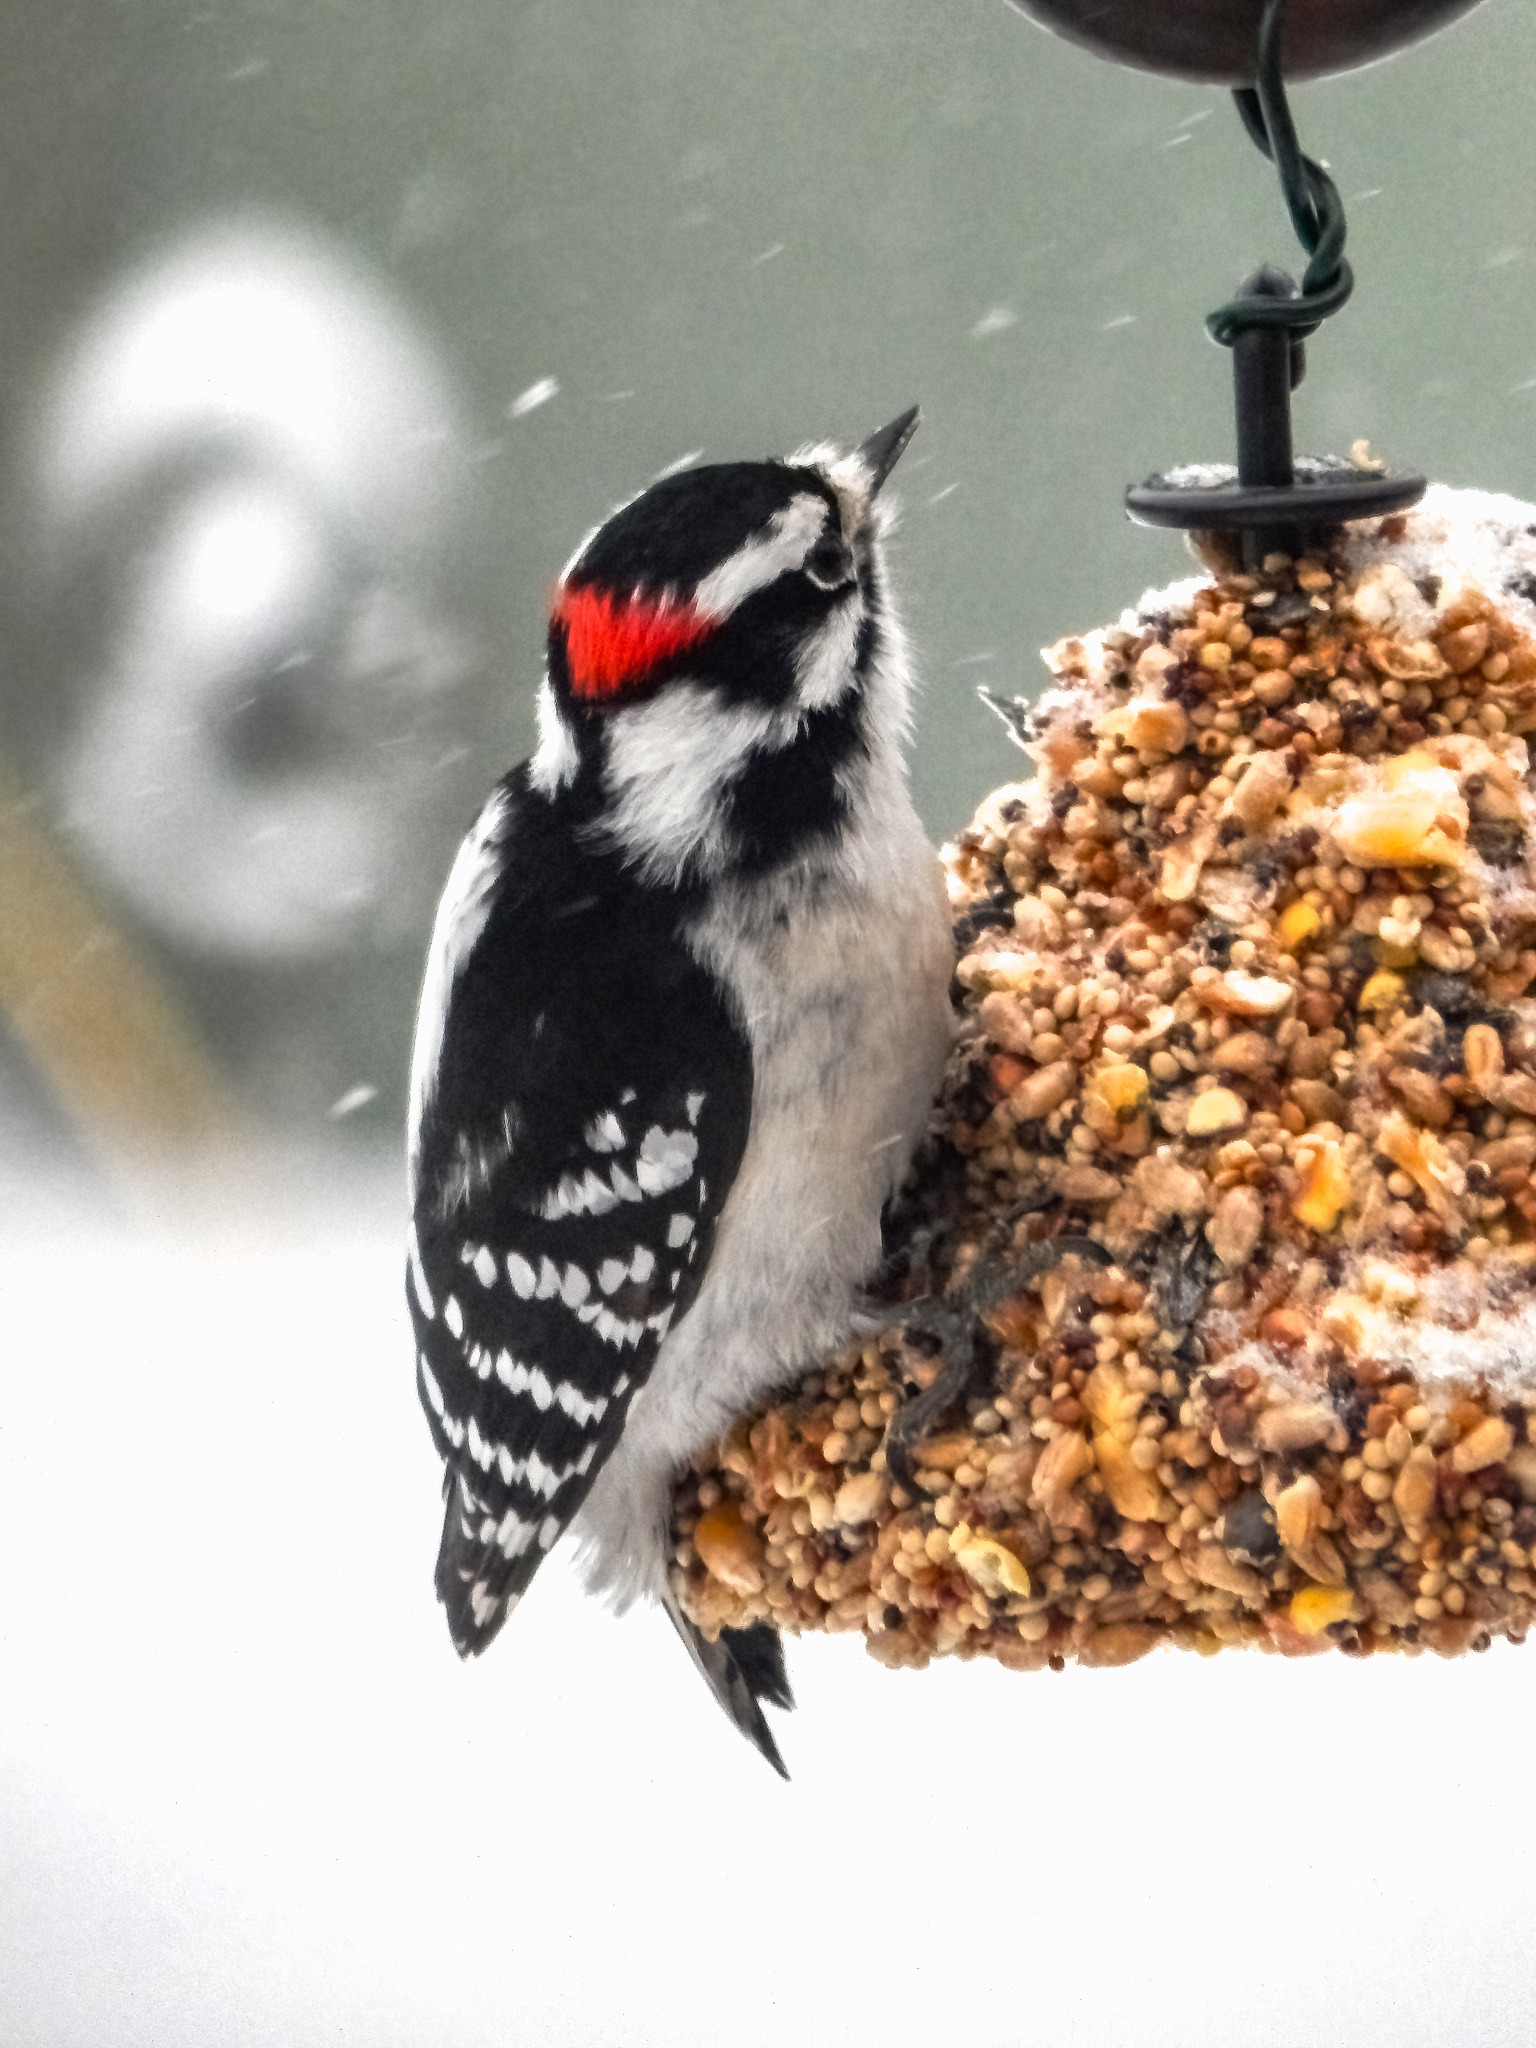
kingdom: Animalia
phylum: Chordata
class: Aves
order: Piciformes
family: Picidae
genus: Dryobates
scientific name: Dryobates pubescens
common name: Downy woodpecker
